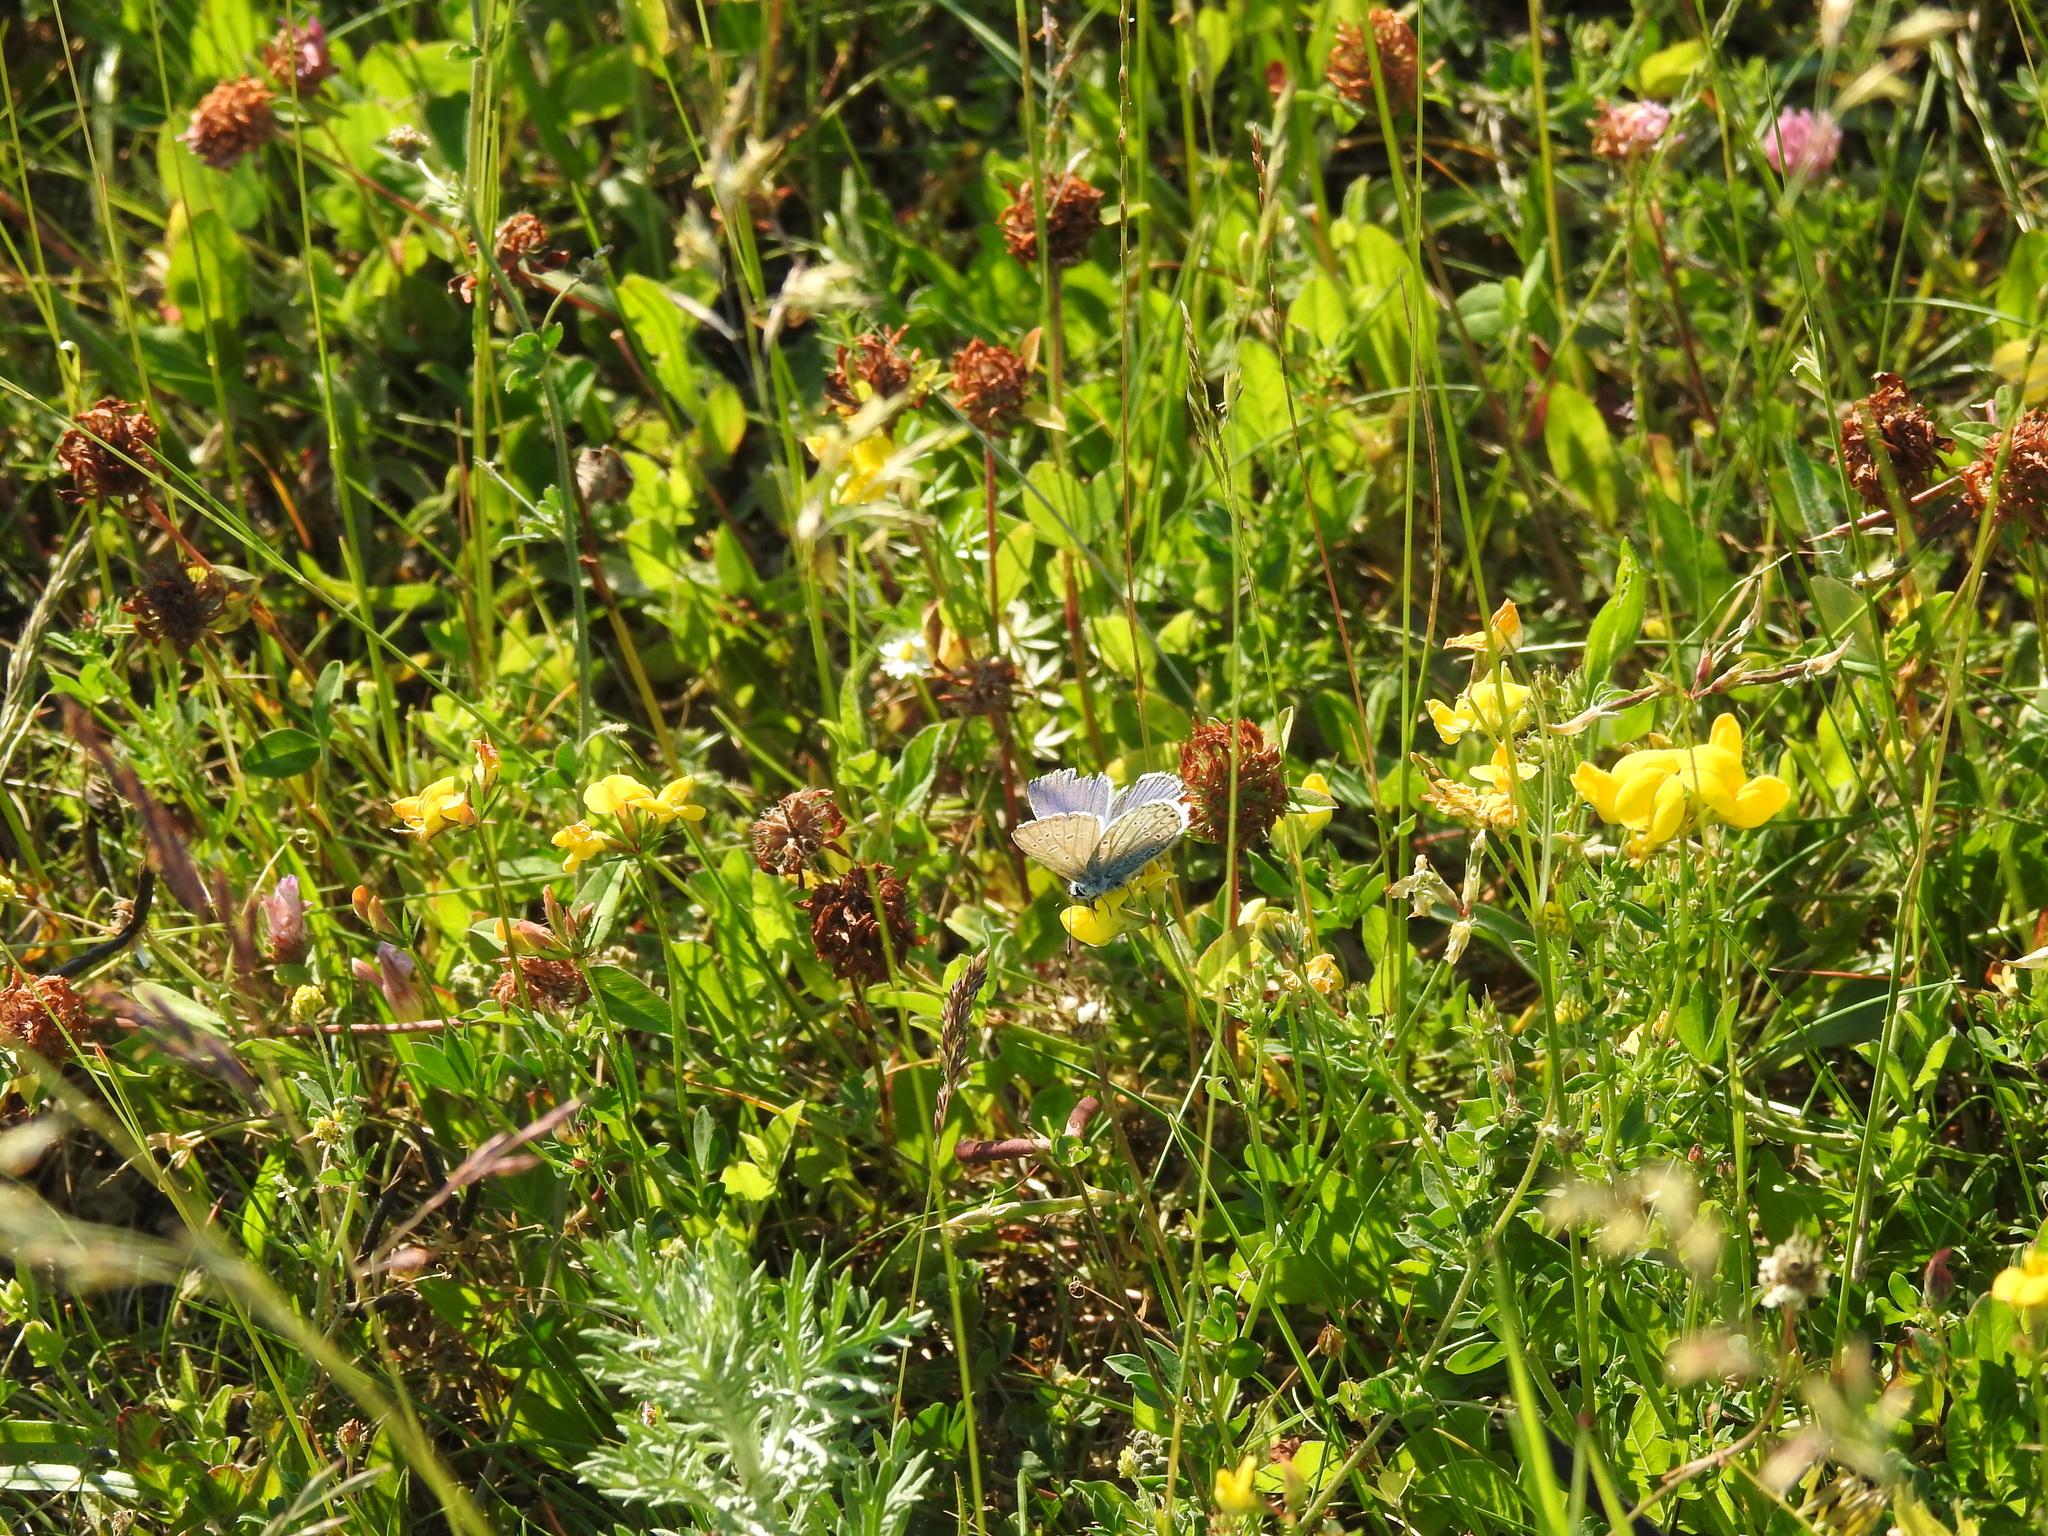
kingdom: Animalia
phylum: Arthropoda
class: Insecta
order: Lepidoptera
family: Lycaenidae
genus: Polyommatus
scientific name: Polyommatus icarus
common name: Common blue
